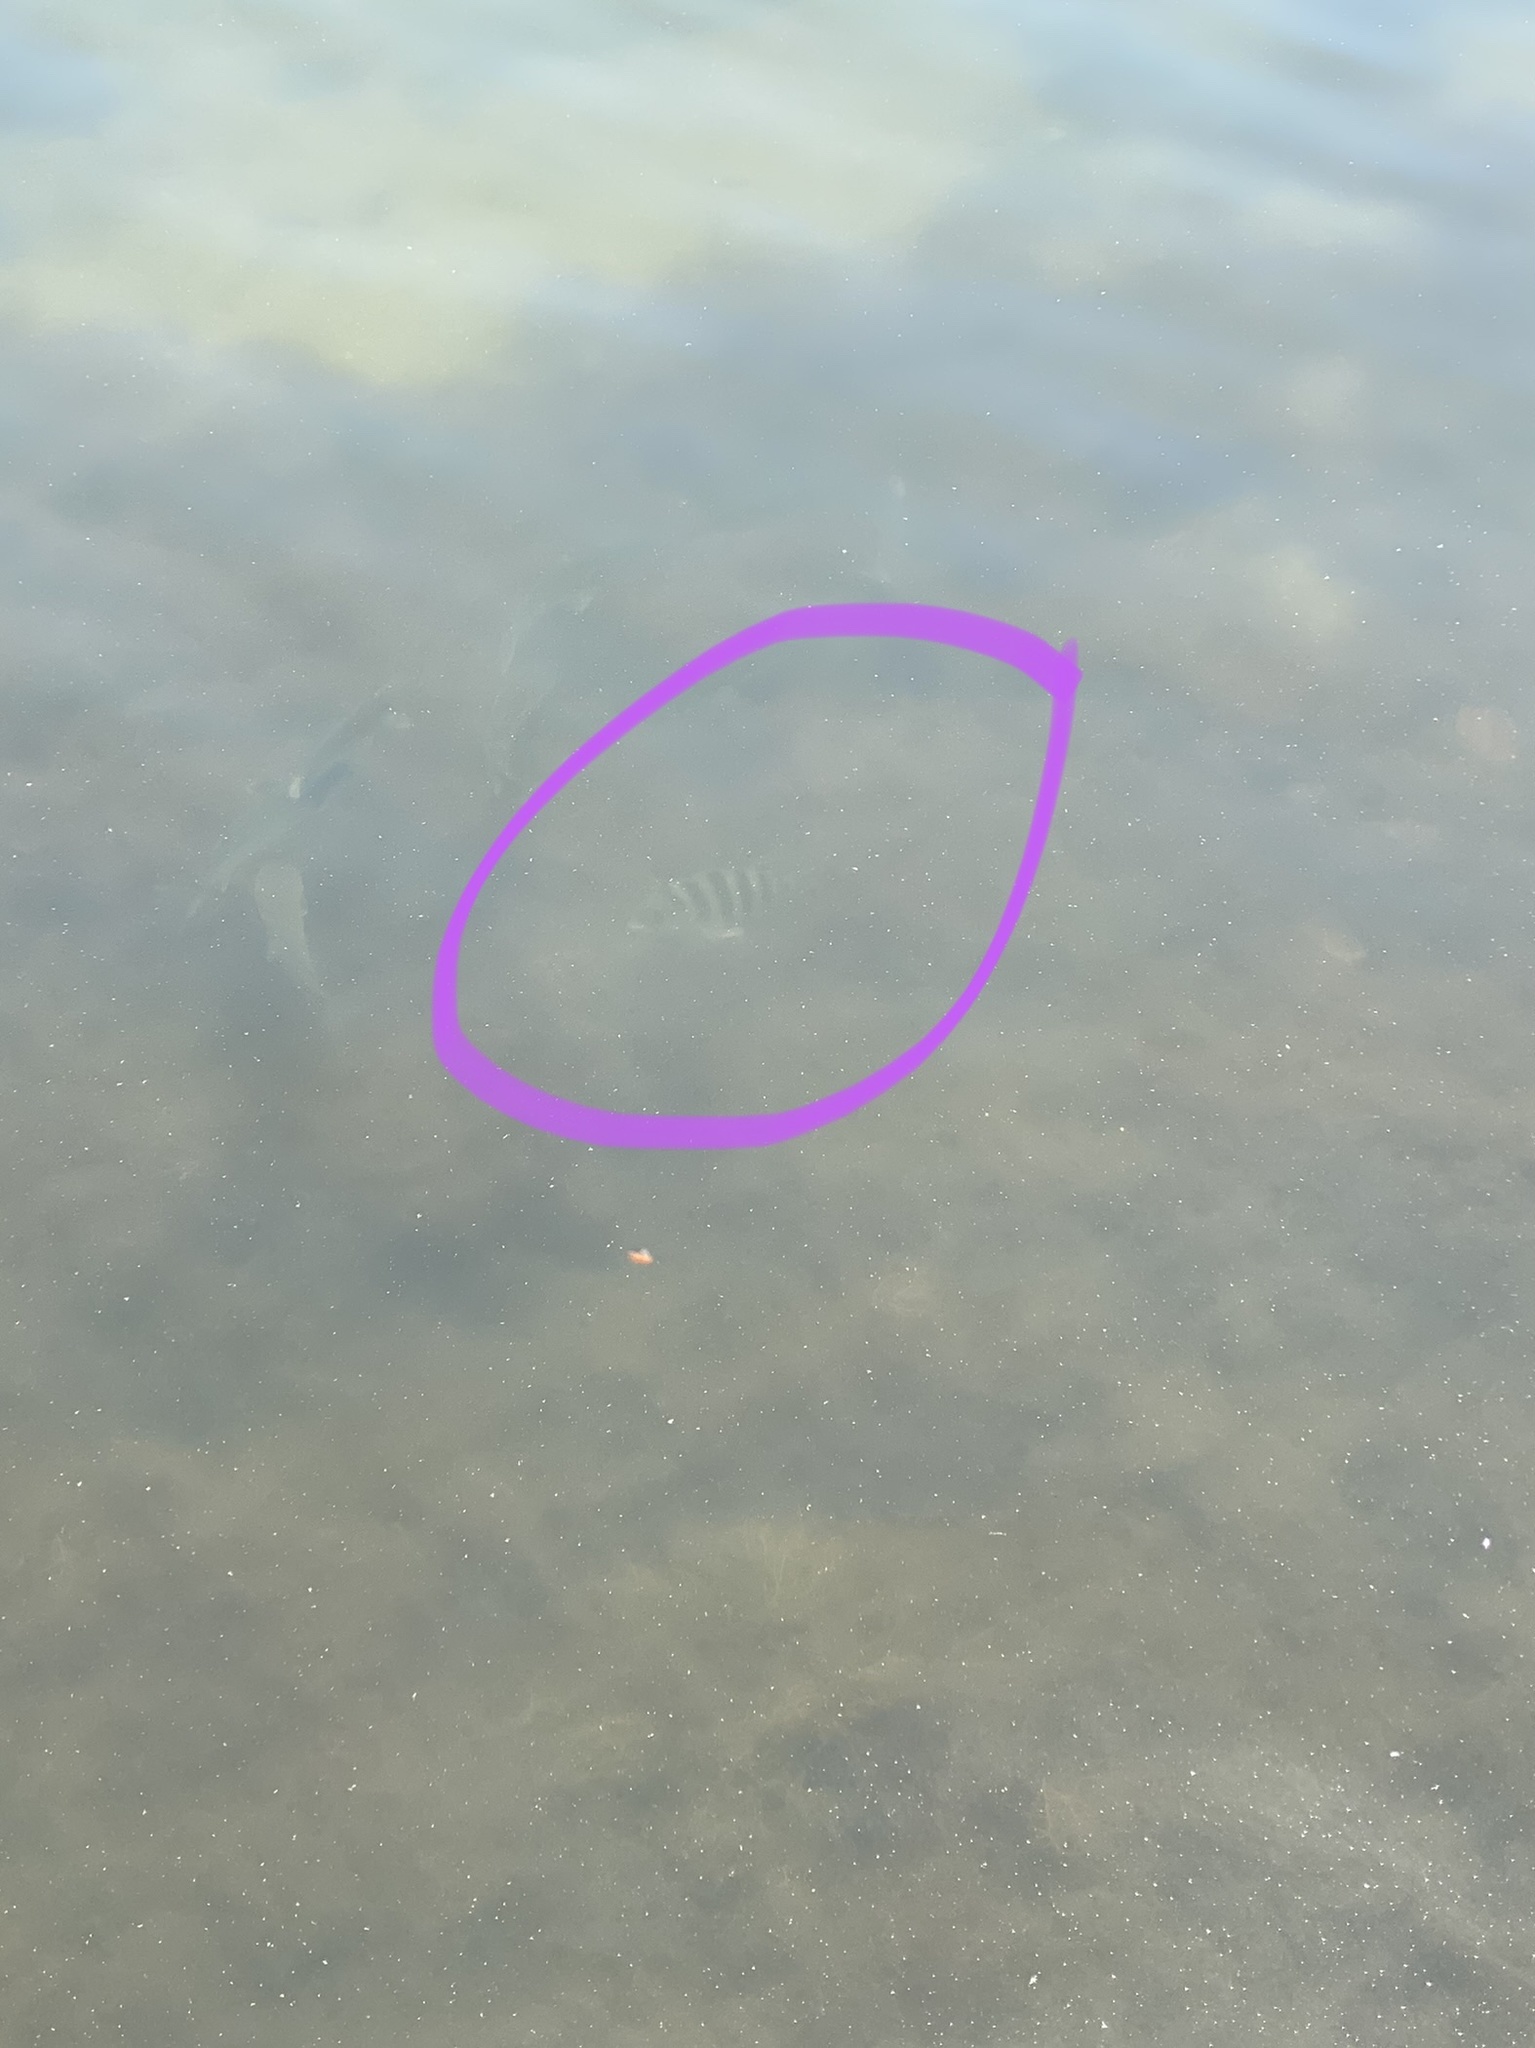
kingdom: Animalia
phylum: Chordata
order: Perciformes
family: Sparidae
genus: Archosargus
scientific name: Archosargus probatocephalus
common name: Sheepshead
